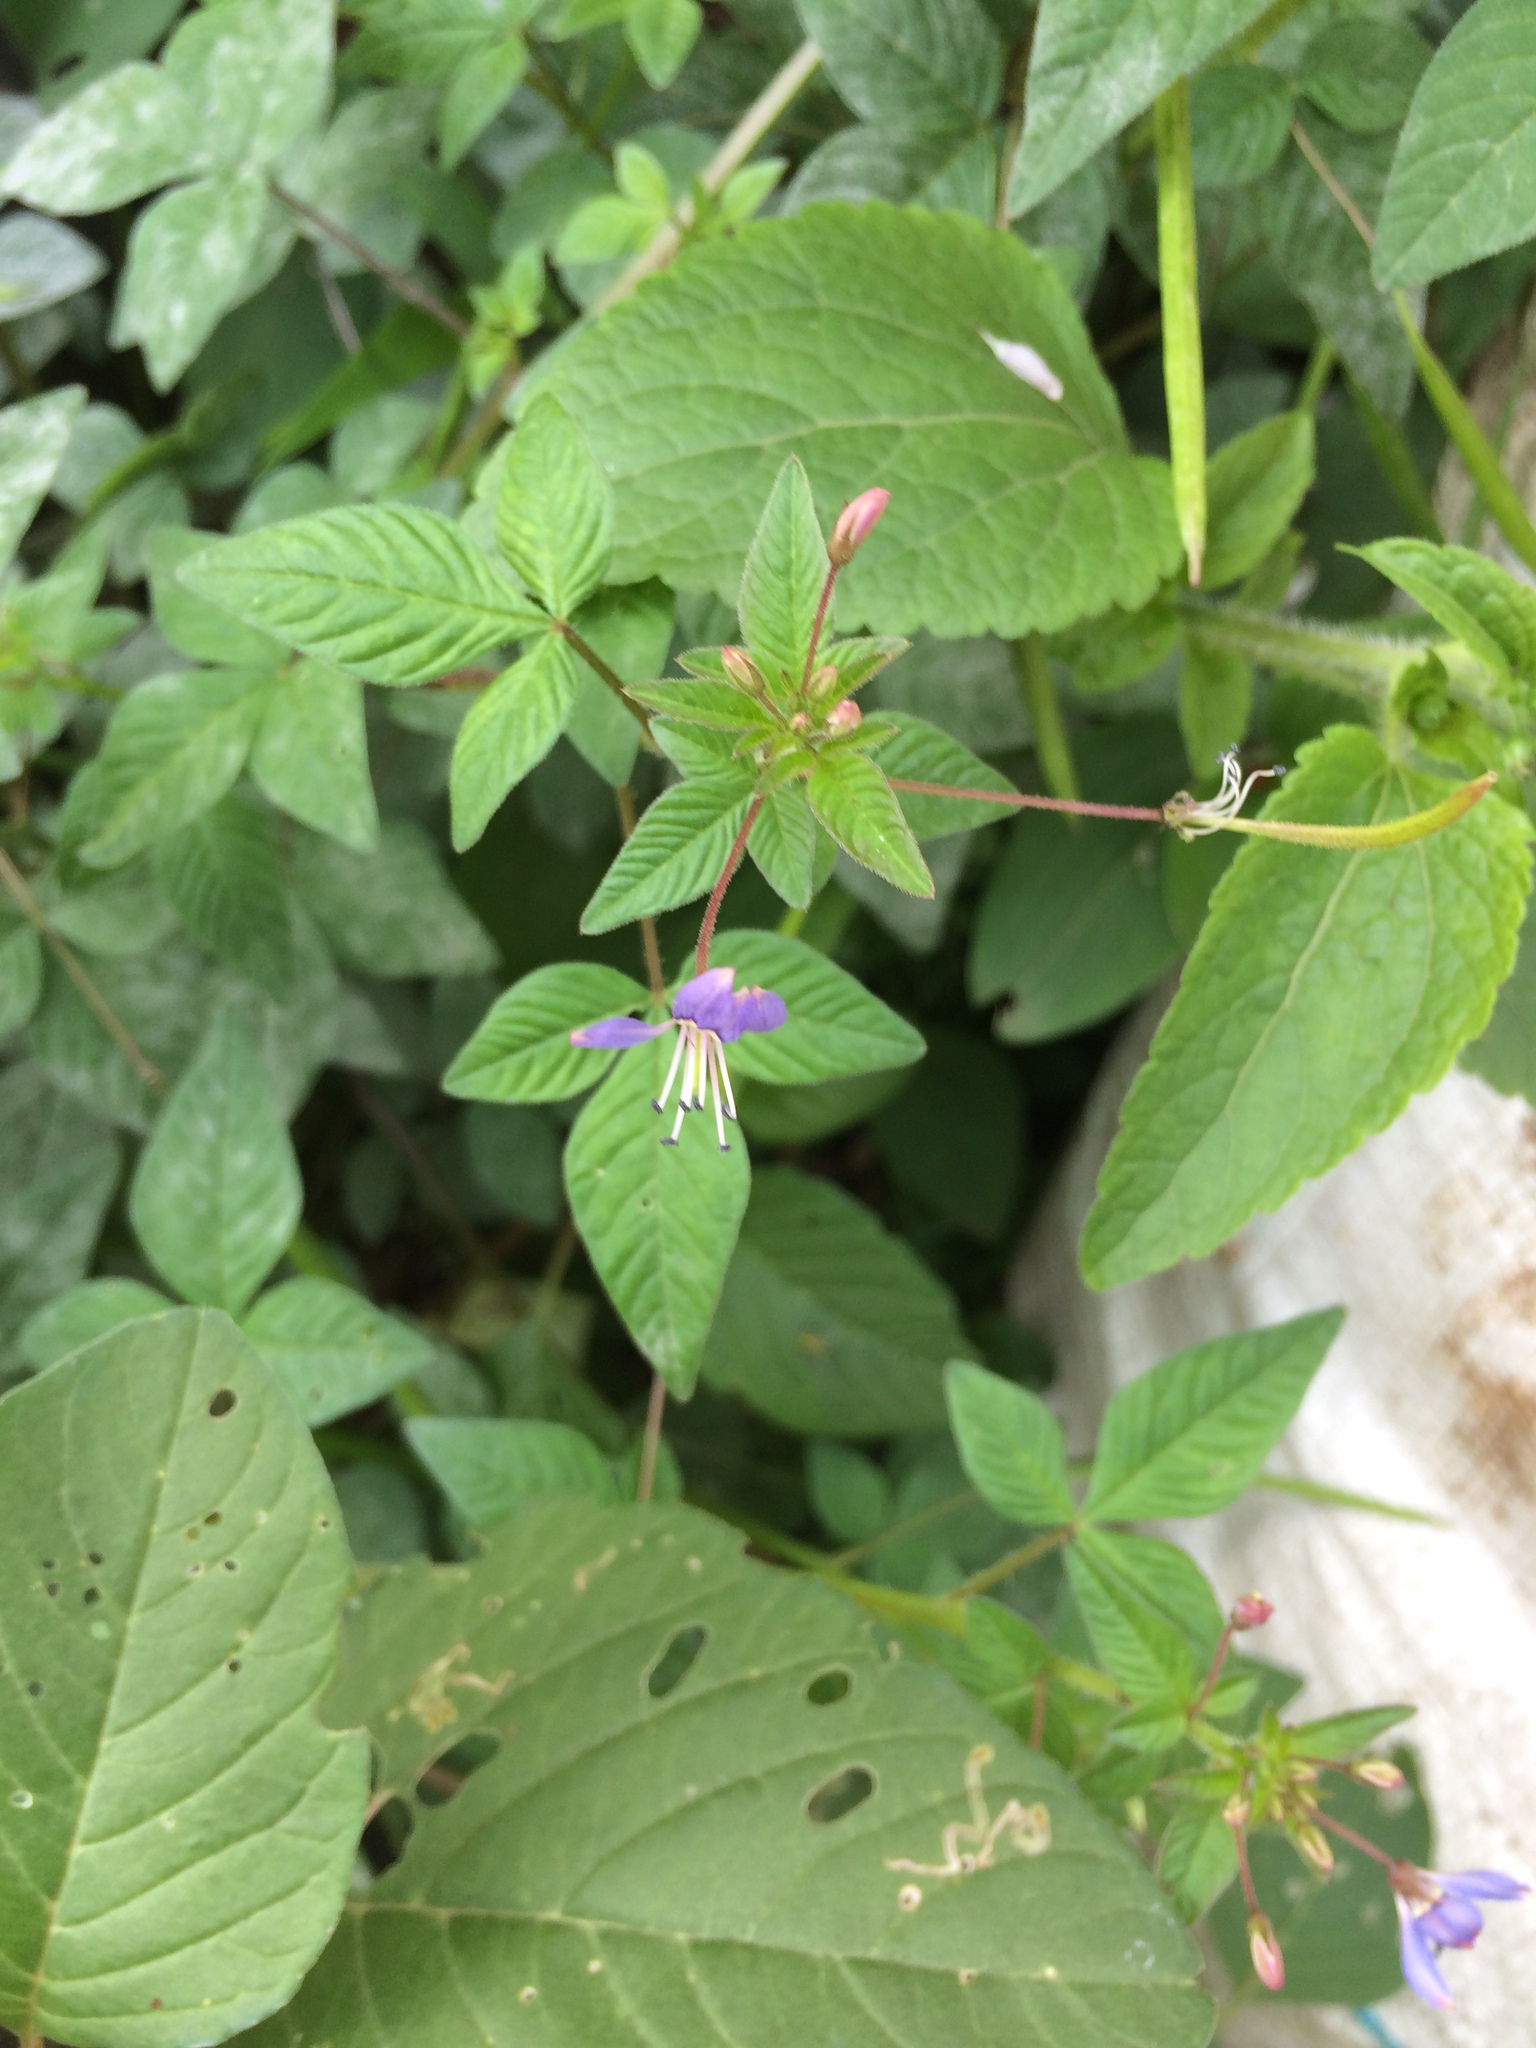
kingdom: Plantae
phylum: Tracheophyta
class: Magnoliopsida
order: Brassicales
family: Cleomaceae
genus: Sieruela
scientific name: Sieruela rutidosperma
